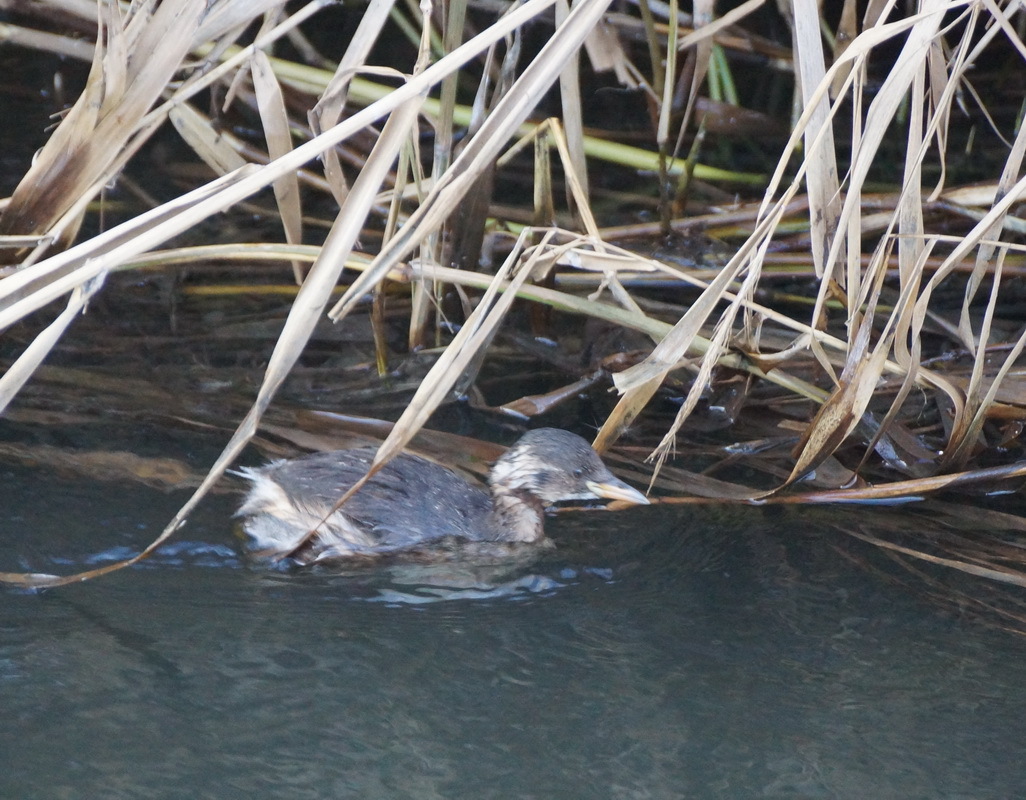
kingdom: Animalia
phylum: Chordata
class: Aves
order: Podicipediformes
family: Podicipedidae
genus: Tachybaptus
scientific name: Tachybaptus ruficollis
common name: Little grebe
